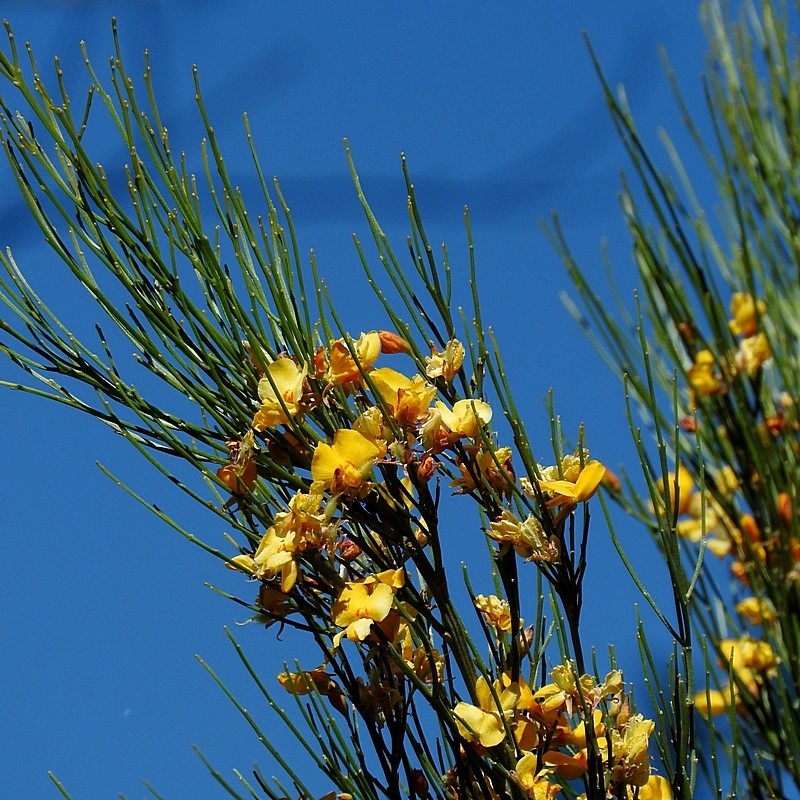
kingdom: Plantae
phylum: Tracheophyta
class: Magnoliopsida
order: Fabales
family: Fabaceae
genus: Jacksonia
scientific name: Jacksonia scoparia
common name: Dogwood
